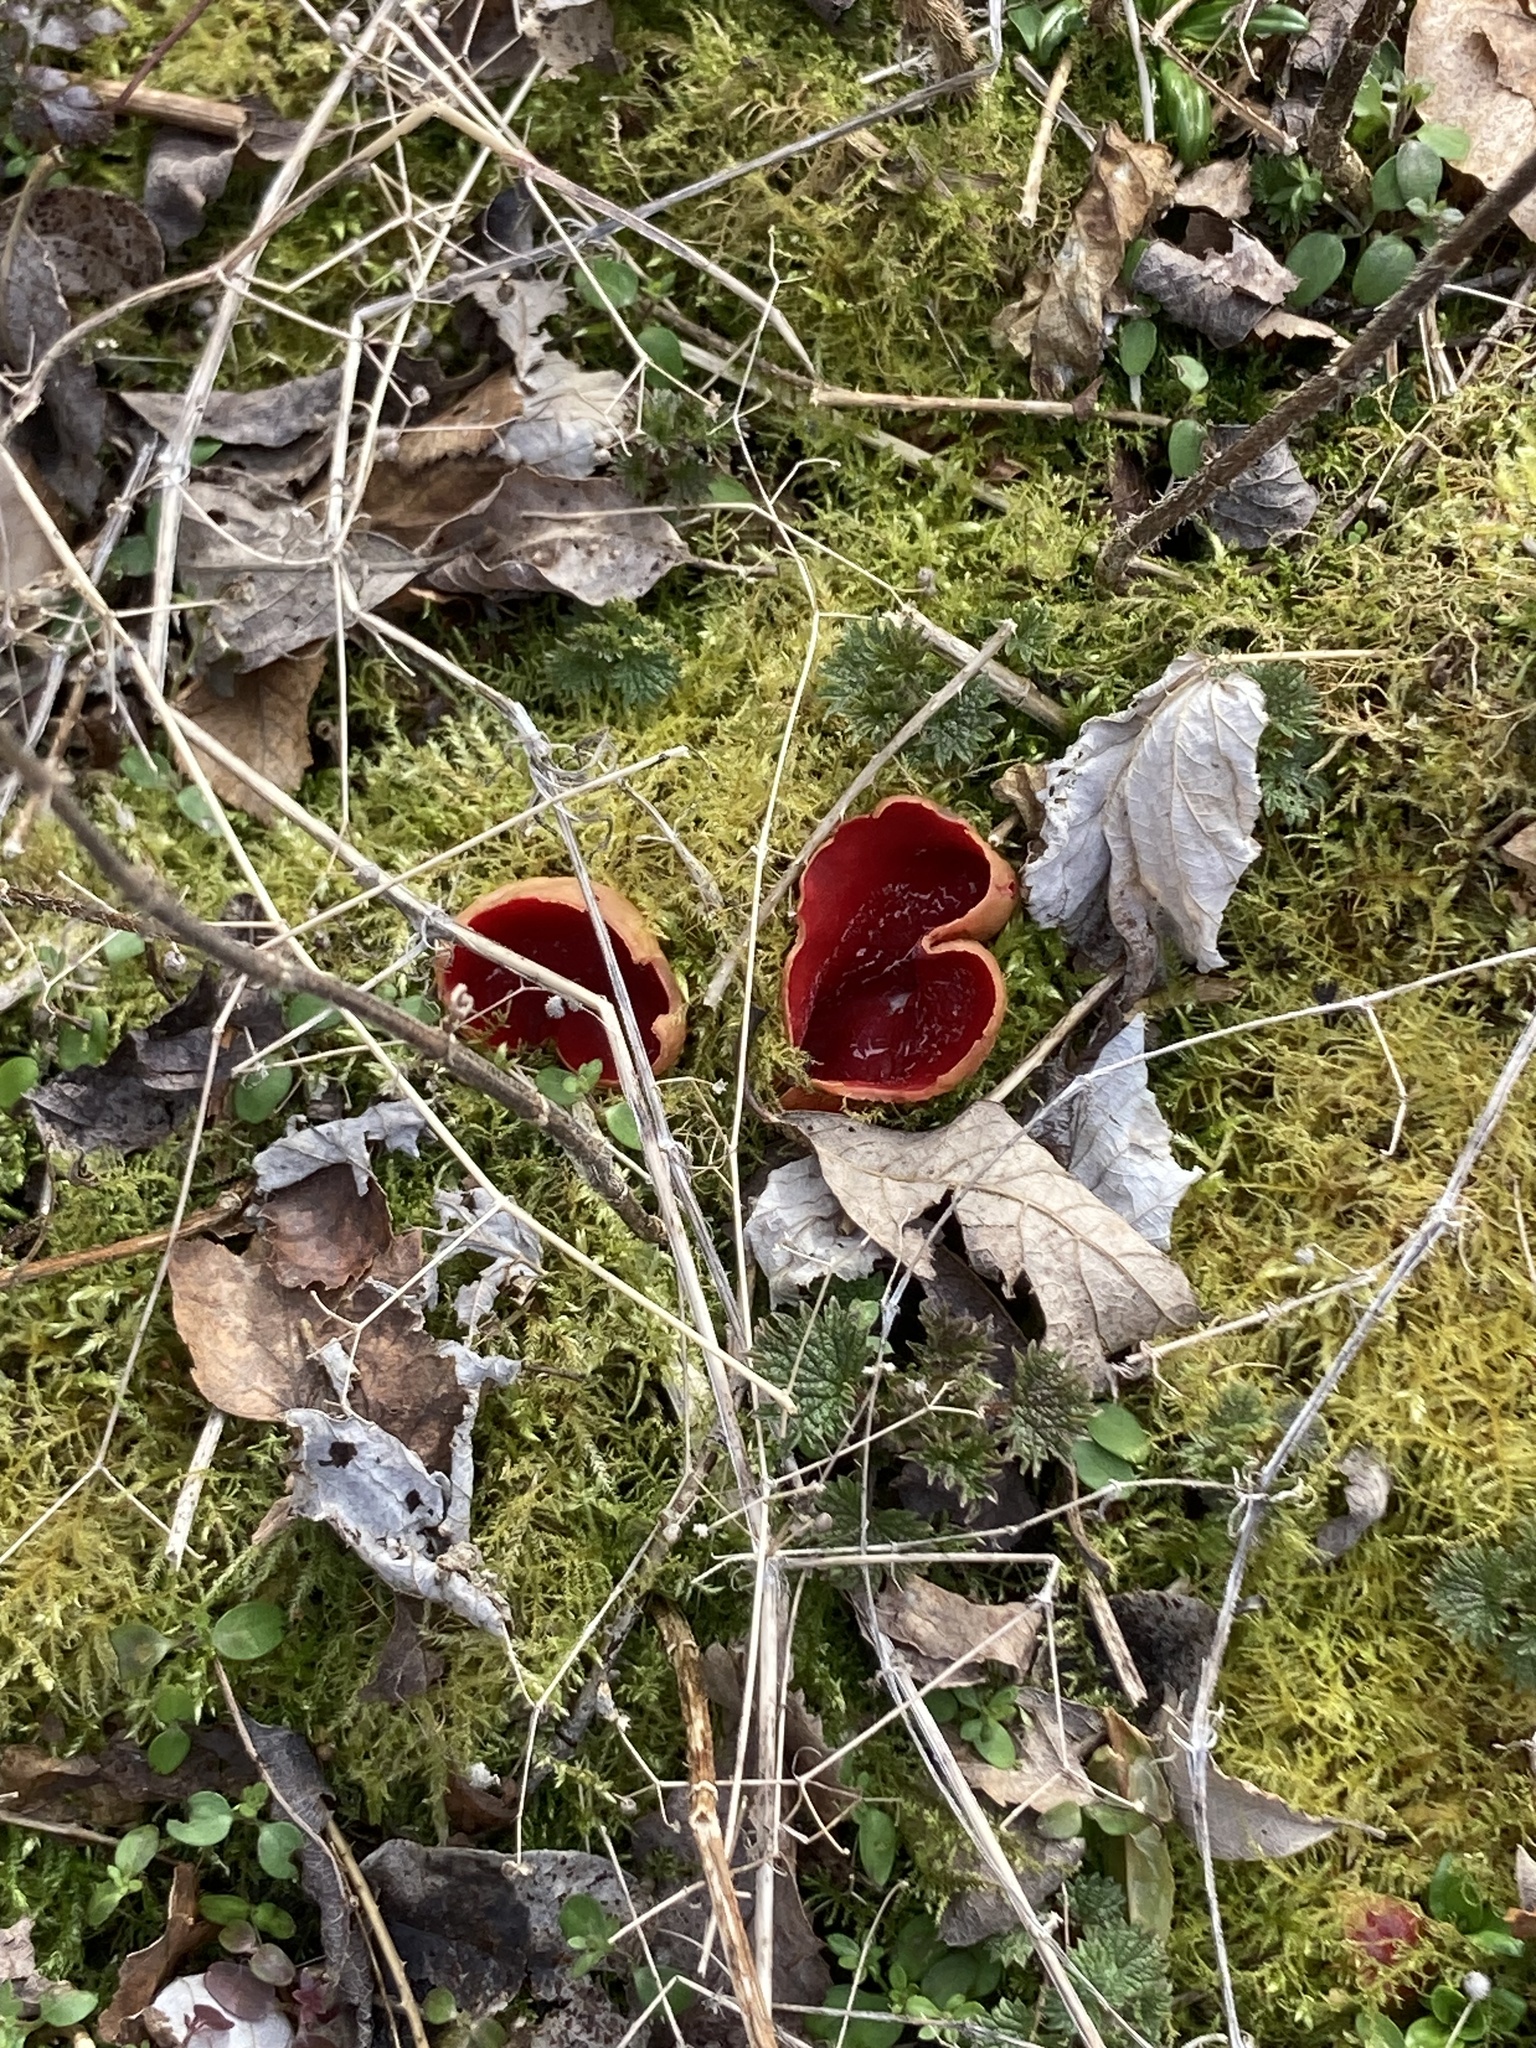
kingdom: Fungi
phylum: Ascomycota
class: Pezizomycetes
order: Pezizales
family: Sarcoscyphaceae
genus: Sarcoscypha
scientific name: Sarcoscypha
